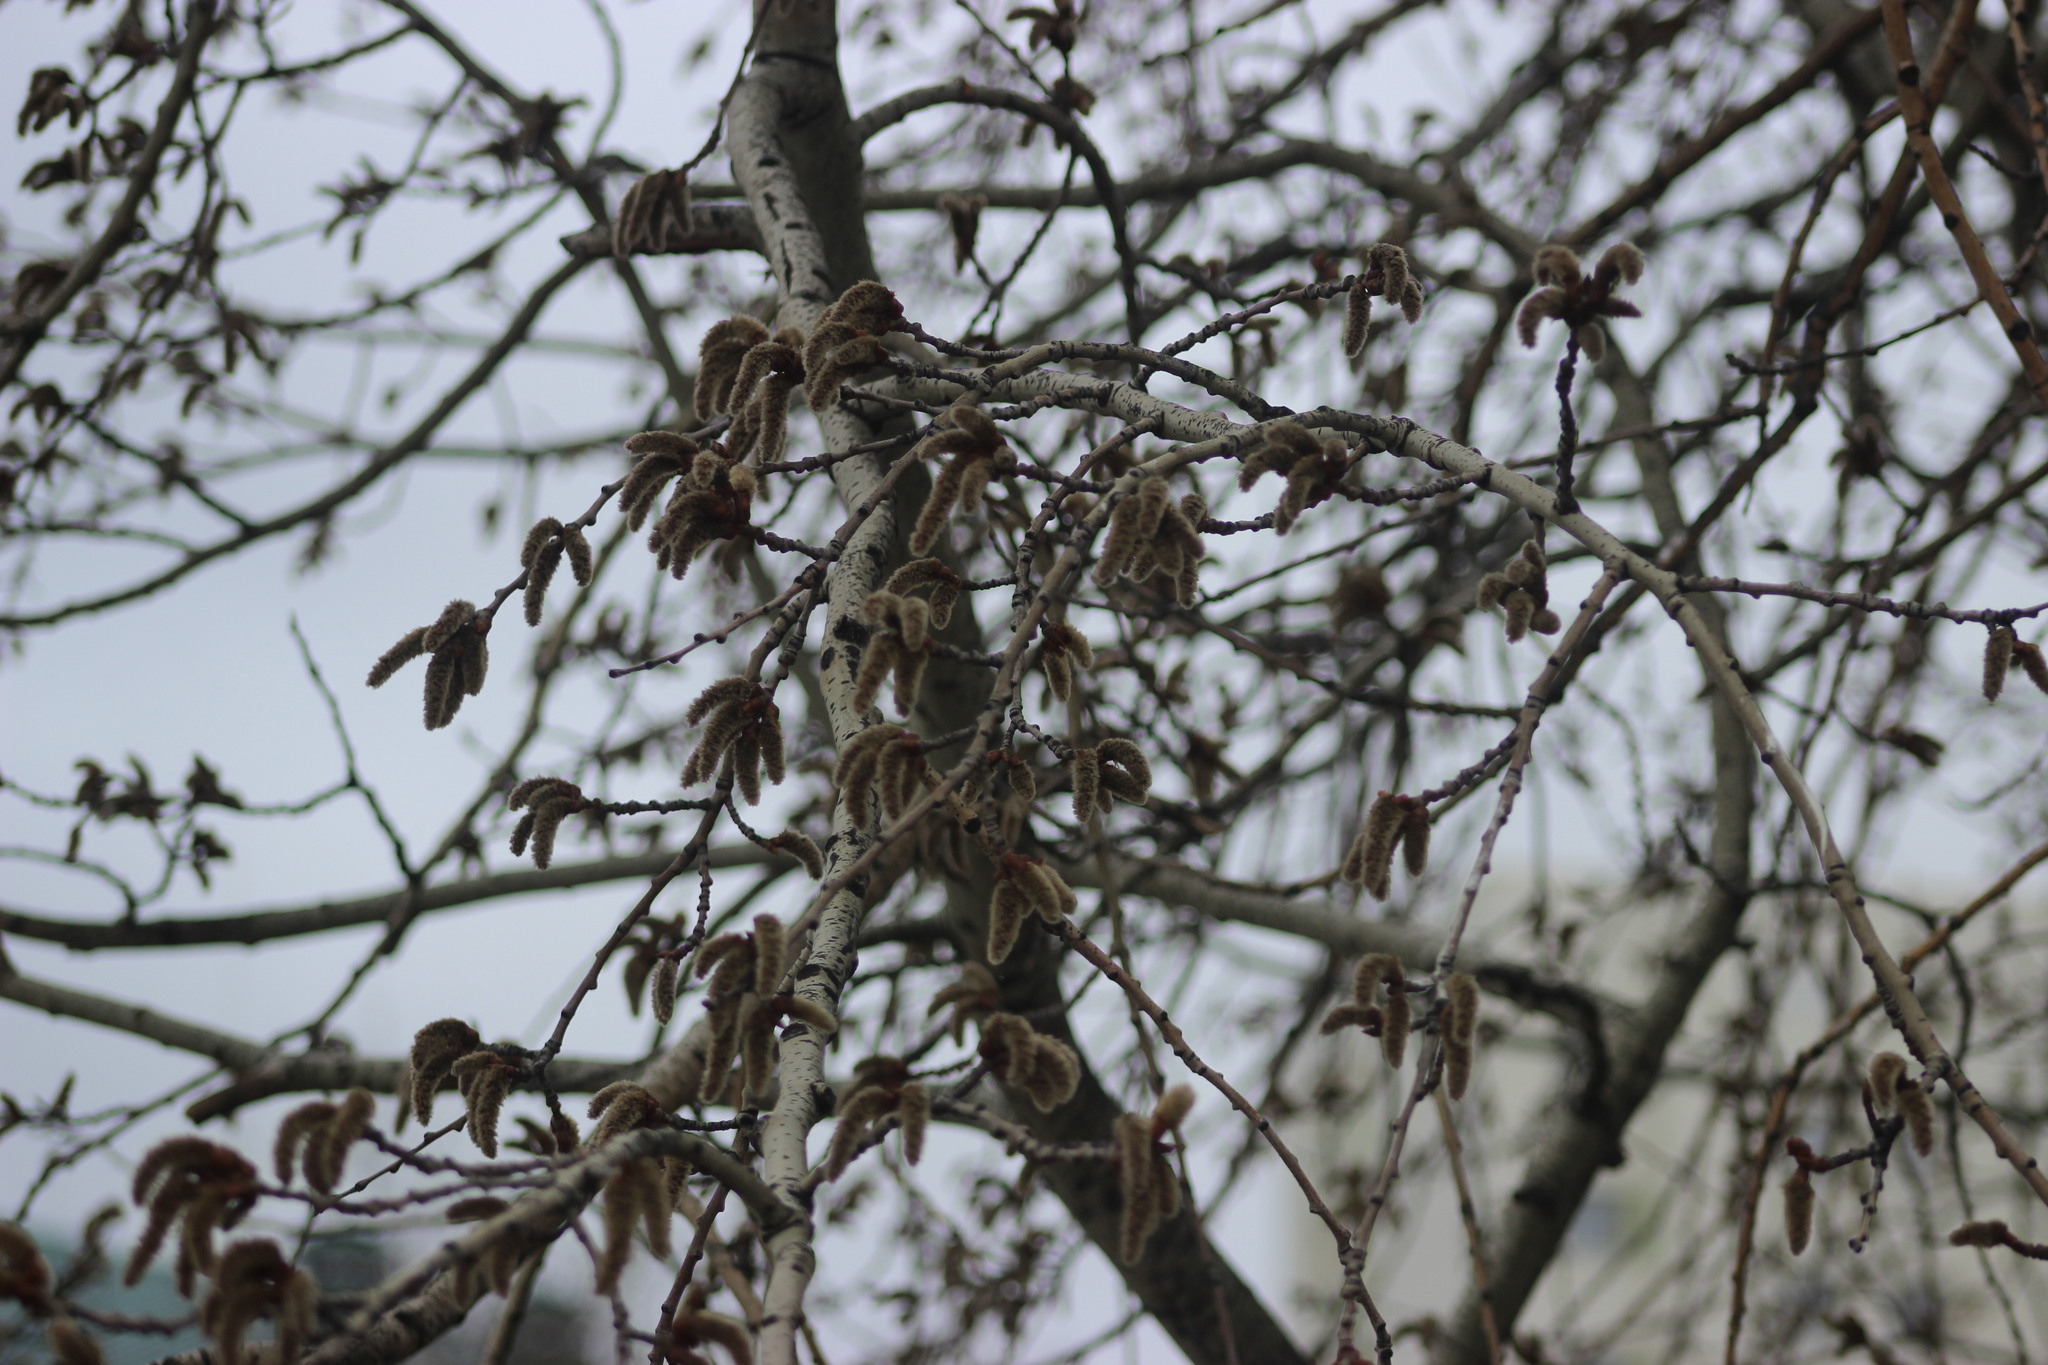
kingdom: Plantae
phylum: Tracheophyta
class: Magnoliopsida
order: Malpighiales
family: Salicaceae
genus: Populus
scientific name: Populus tremula
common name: European aspen
